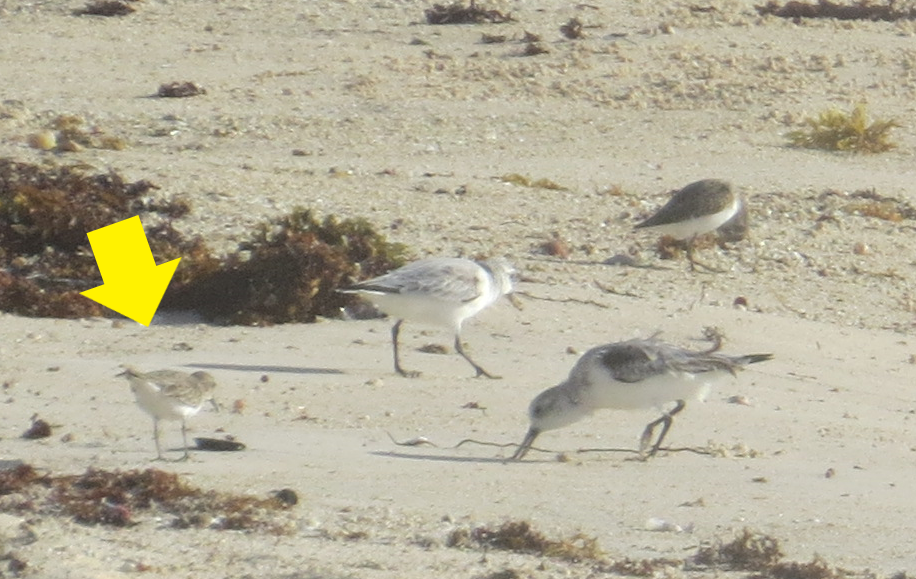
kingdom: Animalia
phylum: Chordata
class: Aves
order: Charadriiformes
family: Scolopacidae
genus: Calidris
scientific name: Calidris minutilla
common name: Least sandpiper
